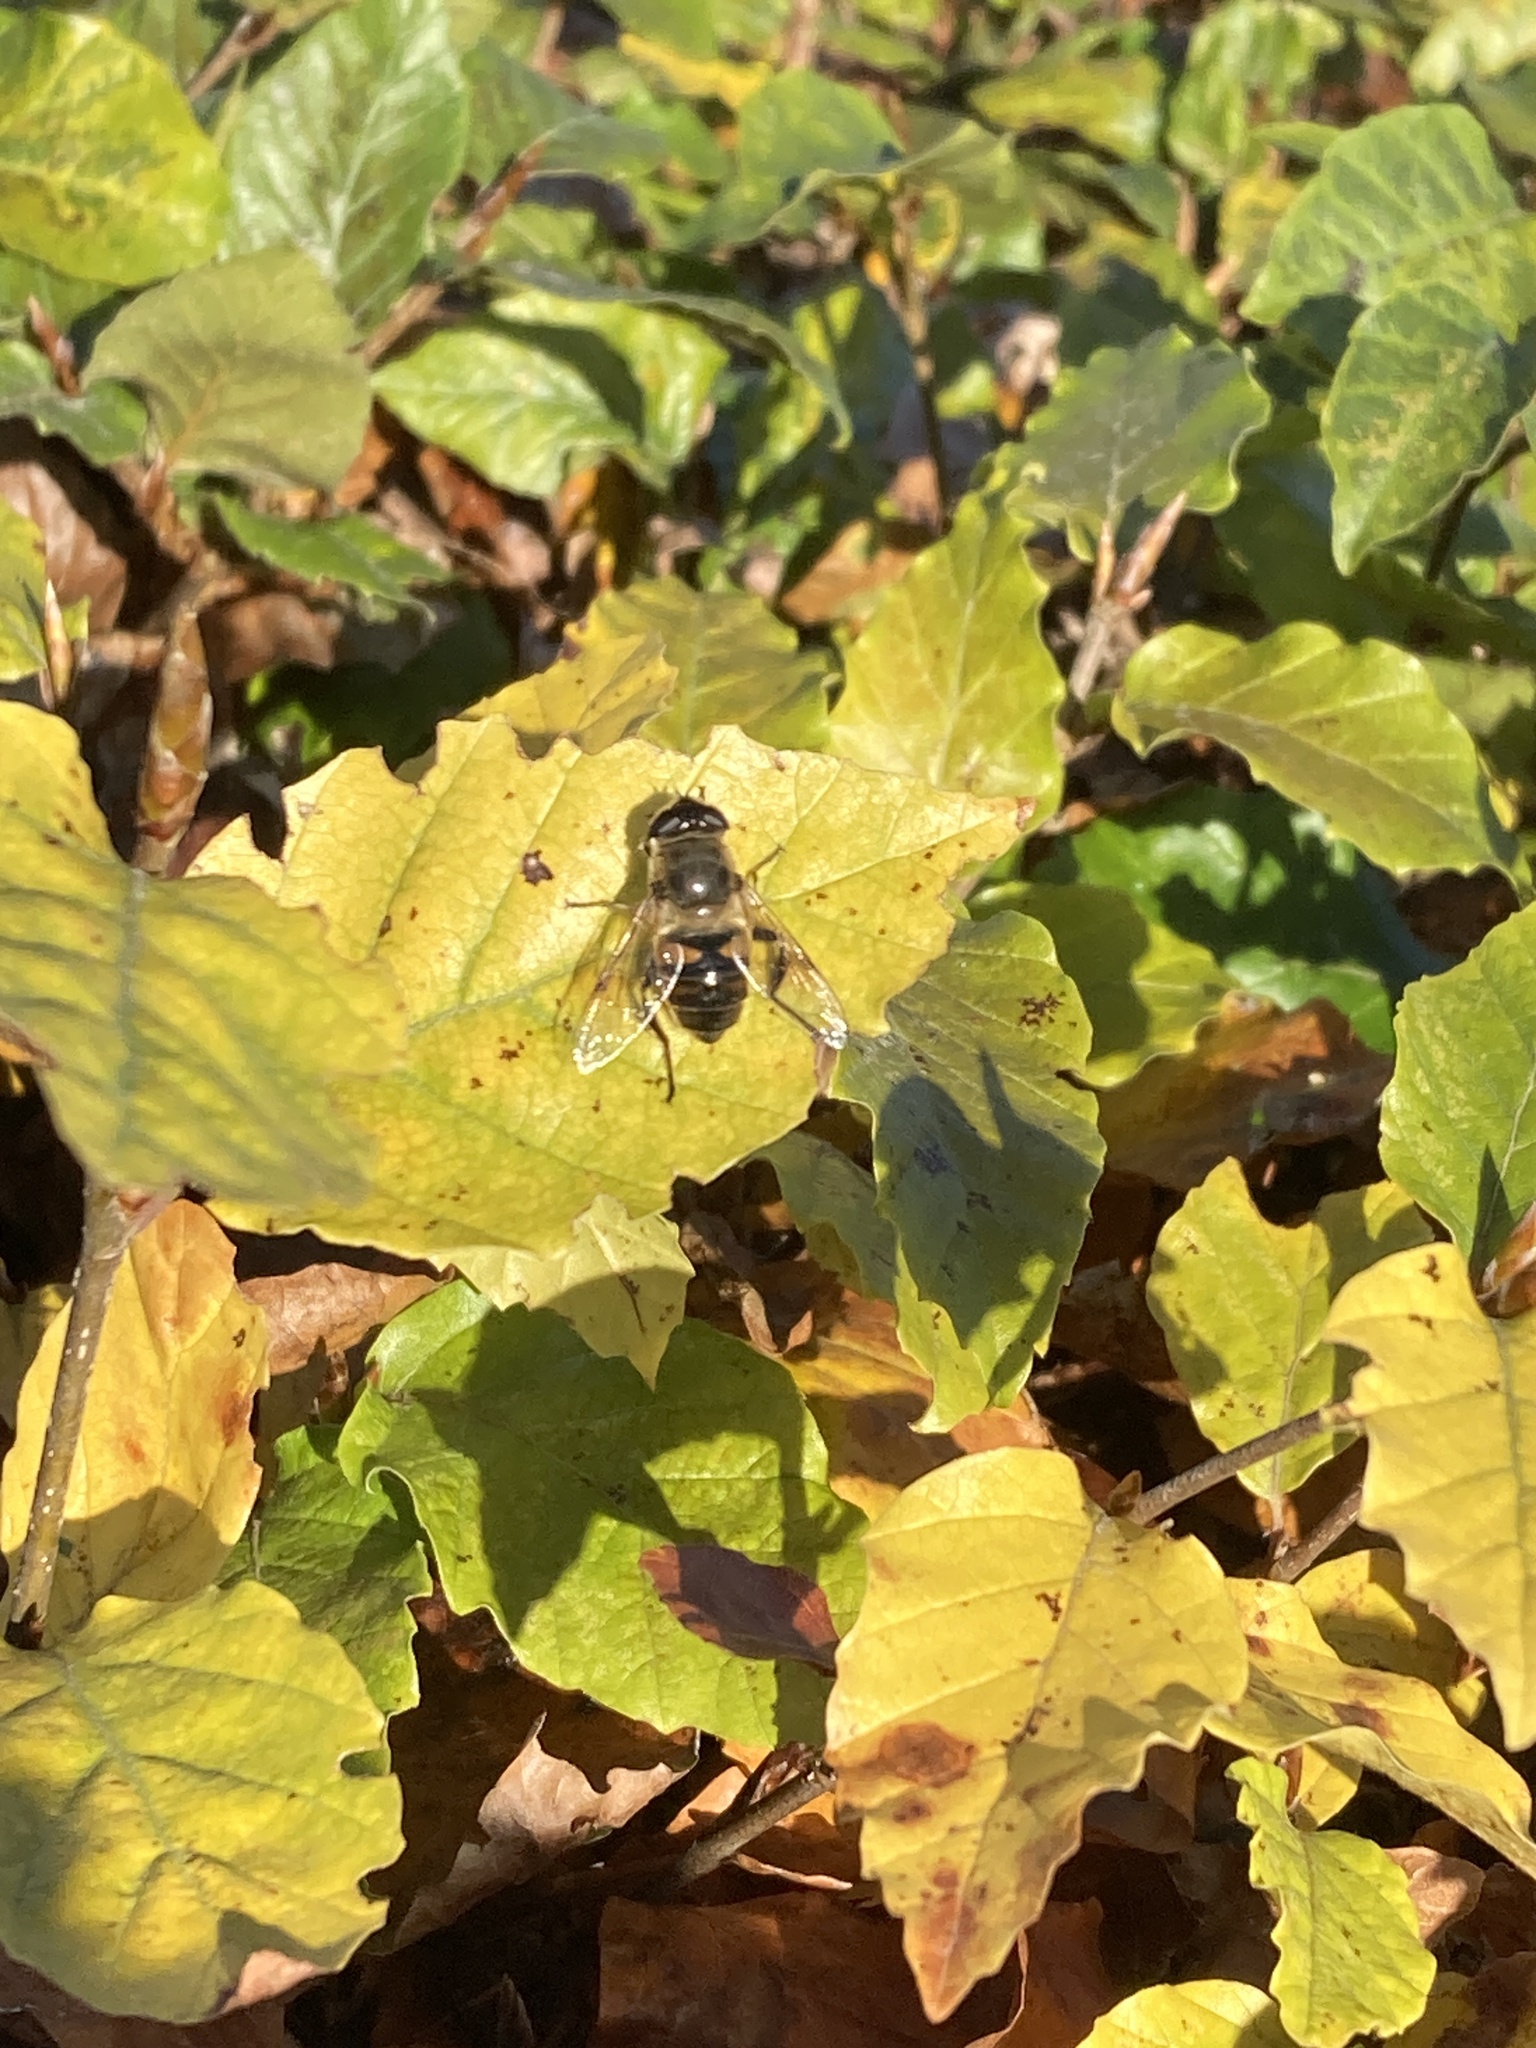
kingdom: Animalia
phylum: Arthropoda
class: Insecta
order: Diptera
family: Syrphidae
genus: Eristalis
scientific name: Eristalis tenax
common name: Drone fly
